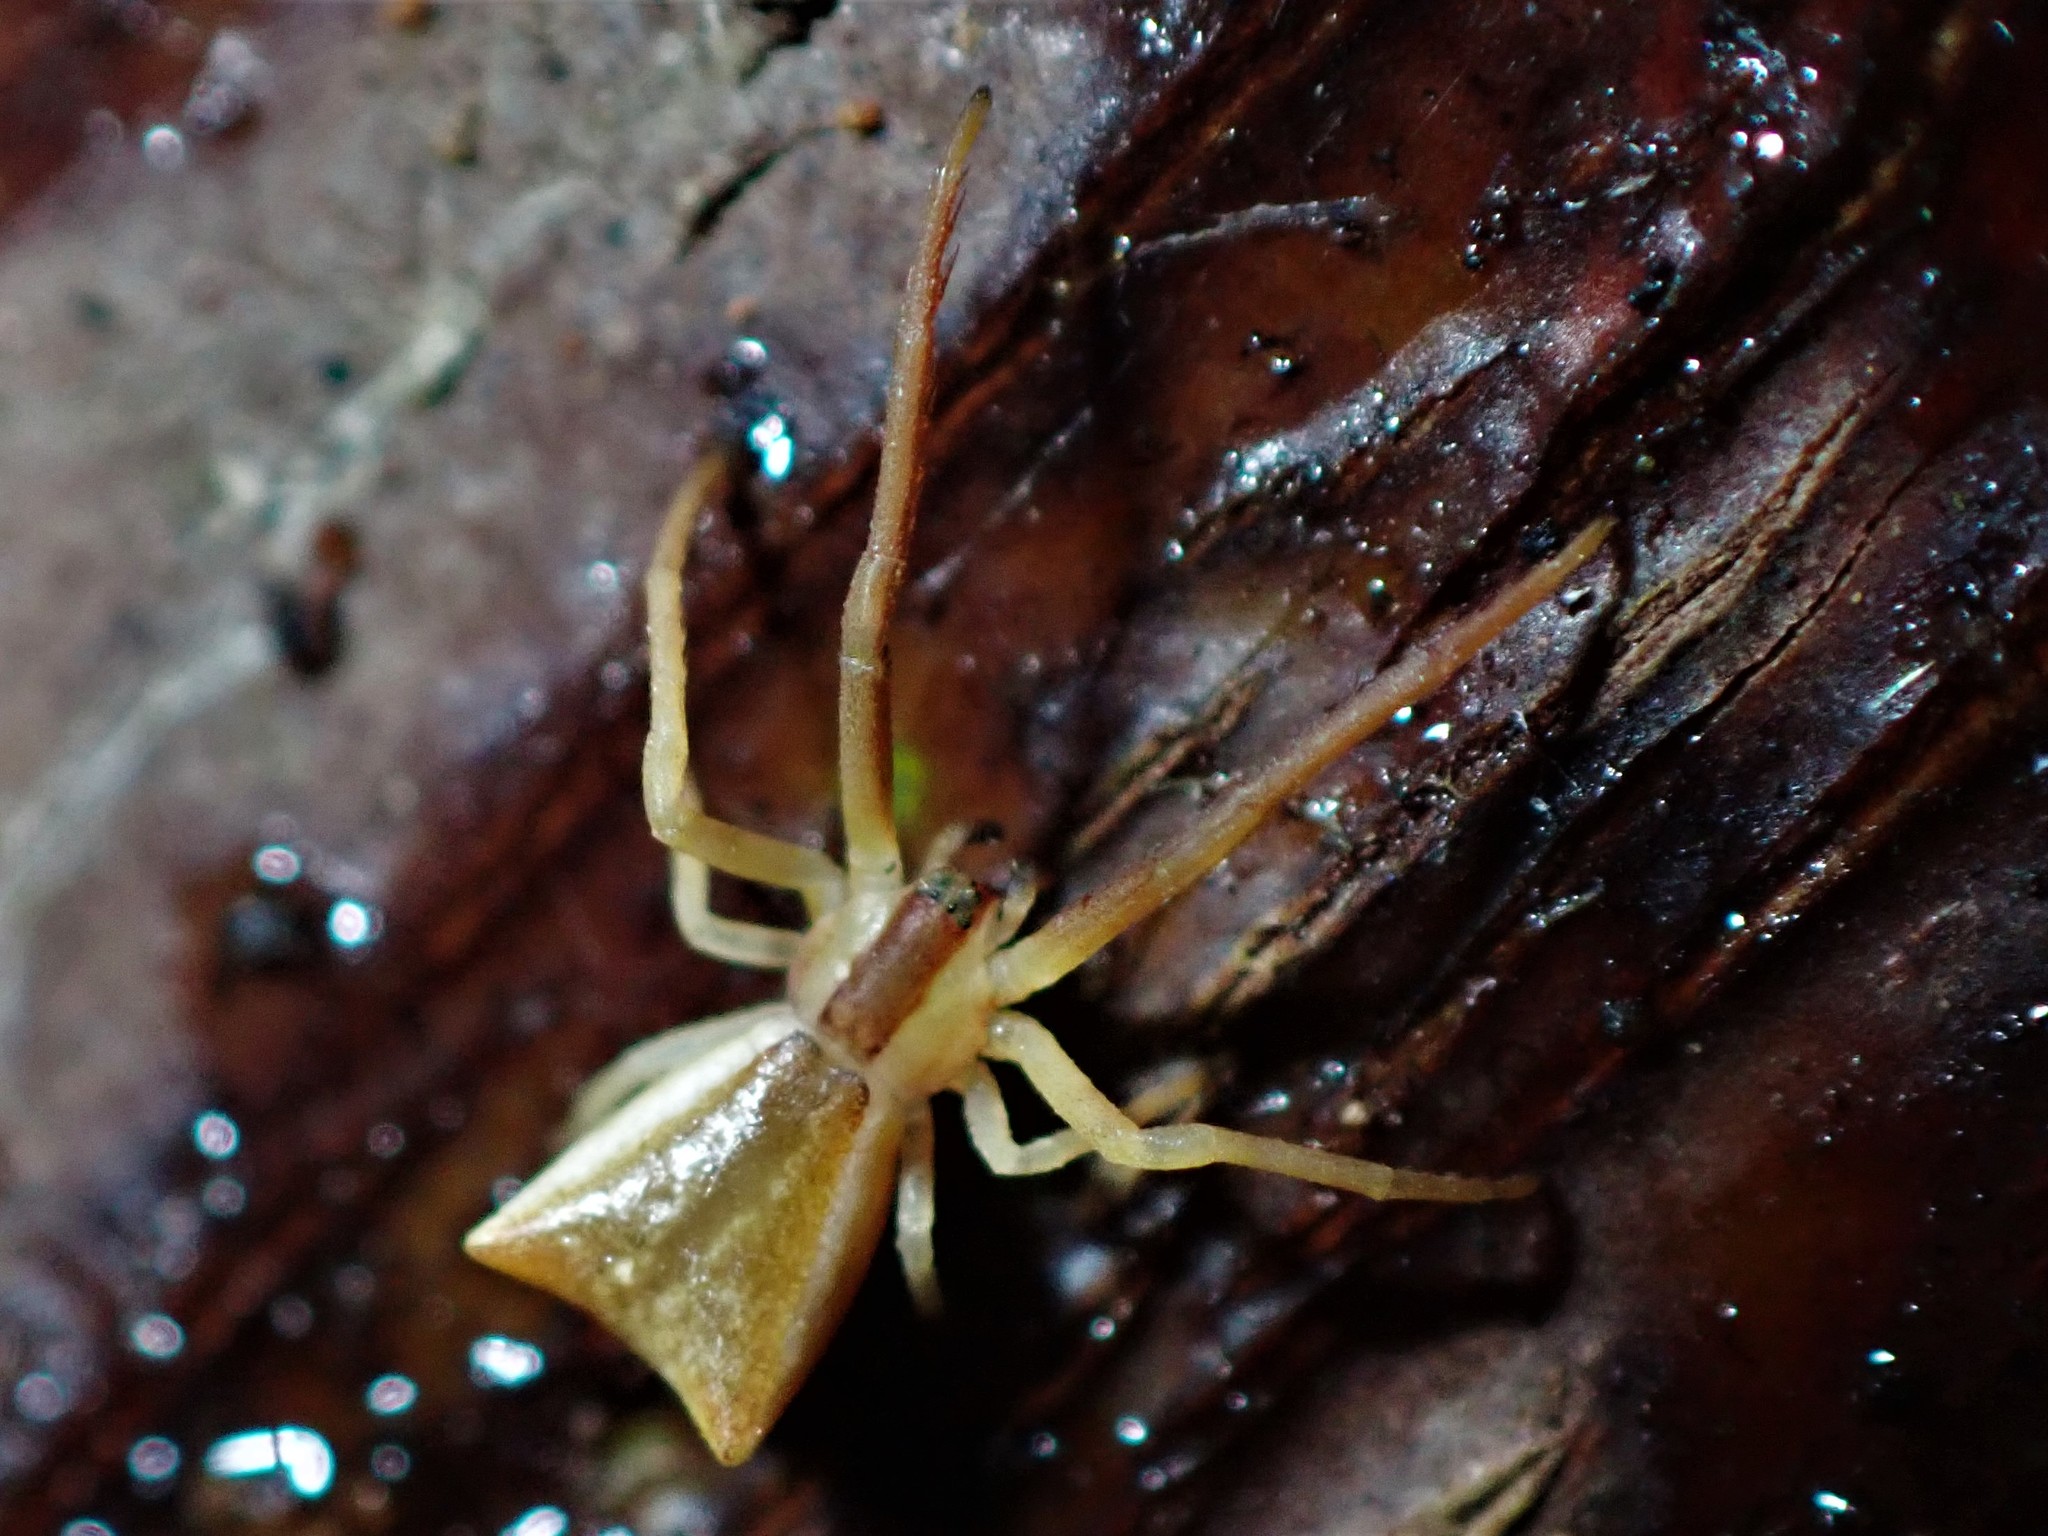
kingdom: Animalia
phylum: Arthropoda
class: Arachnida
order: Araneae
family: Thomisidae
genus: Sidymella
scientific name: Sidymella trapezia
